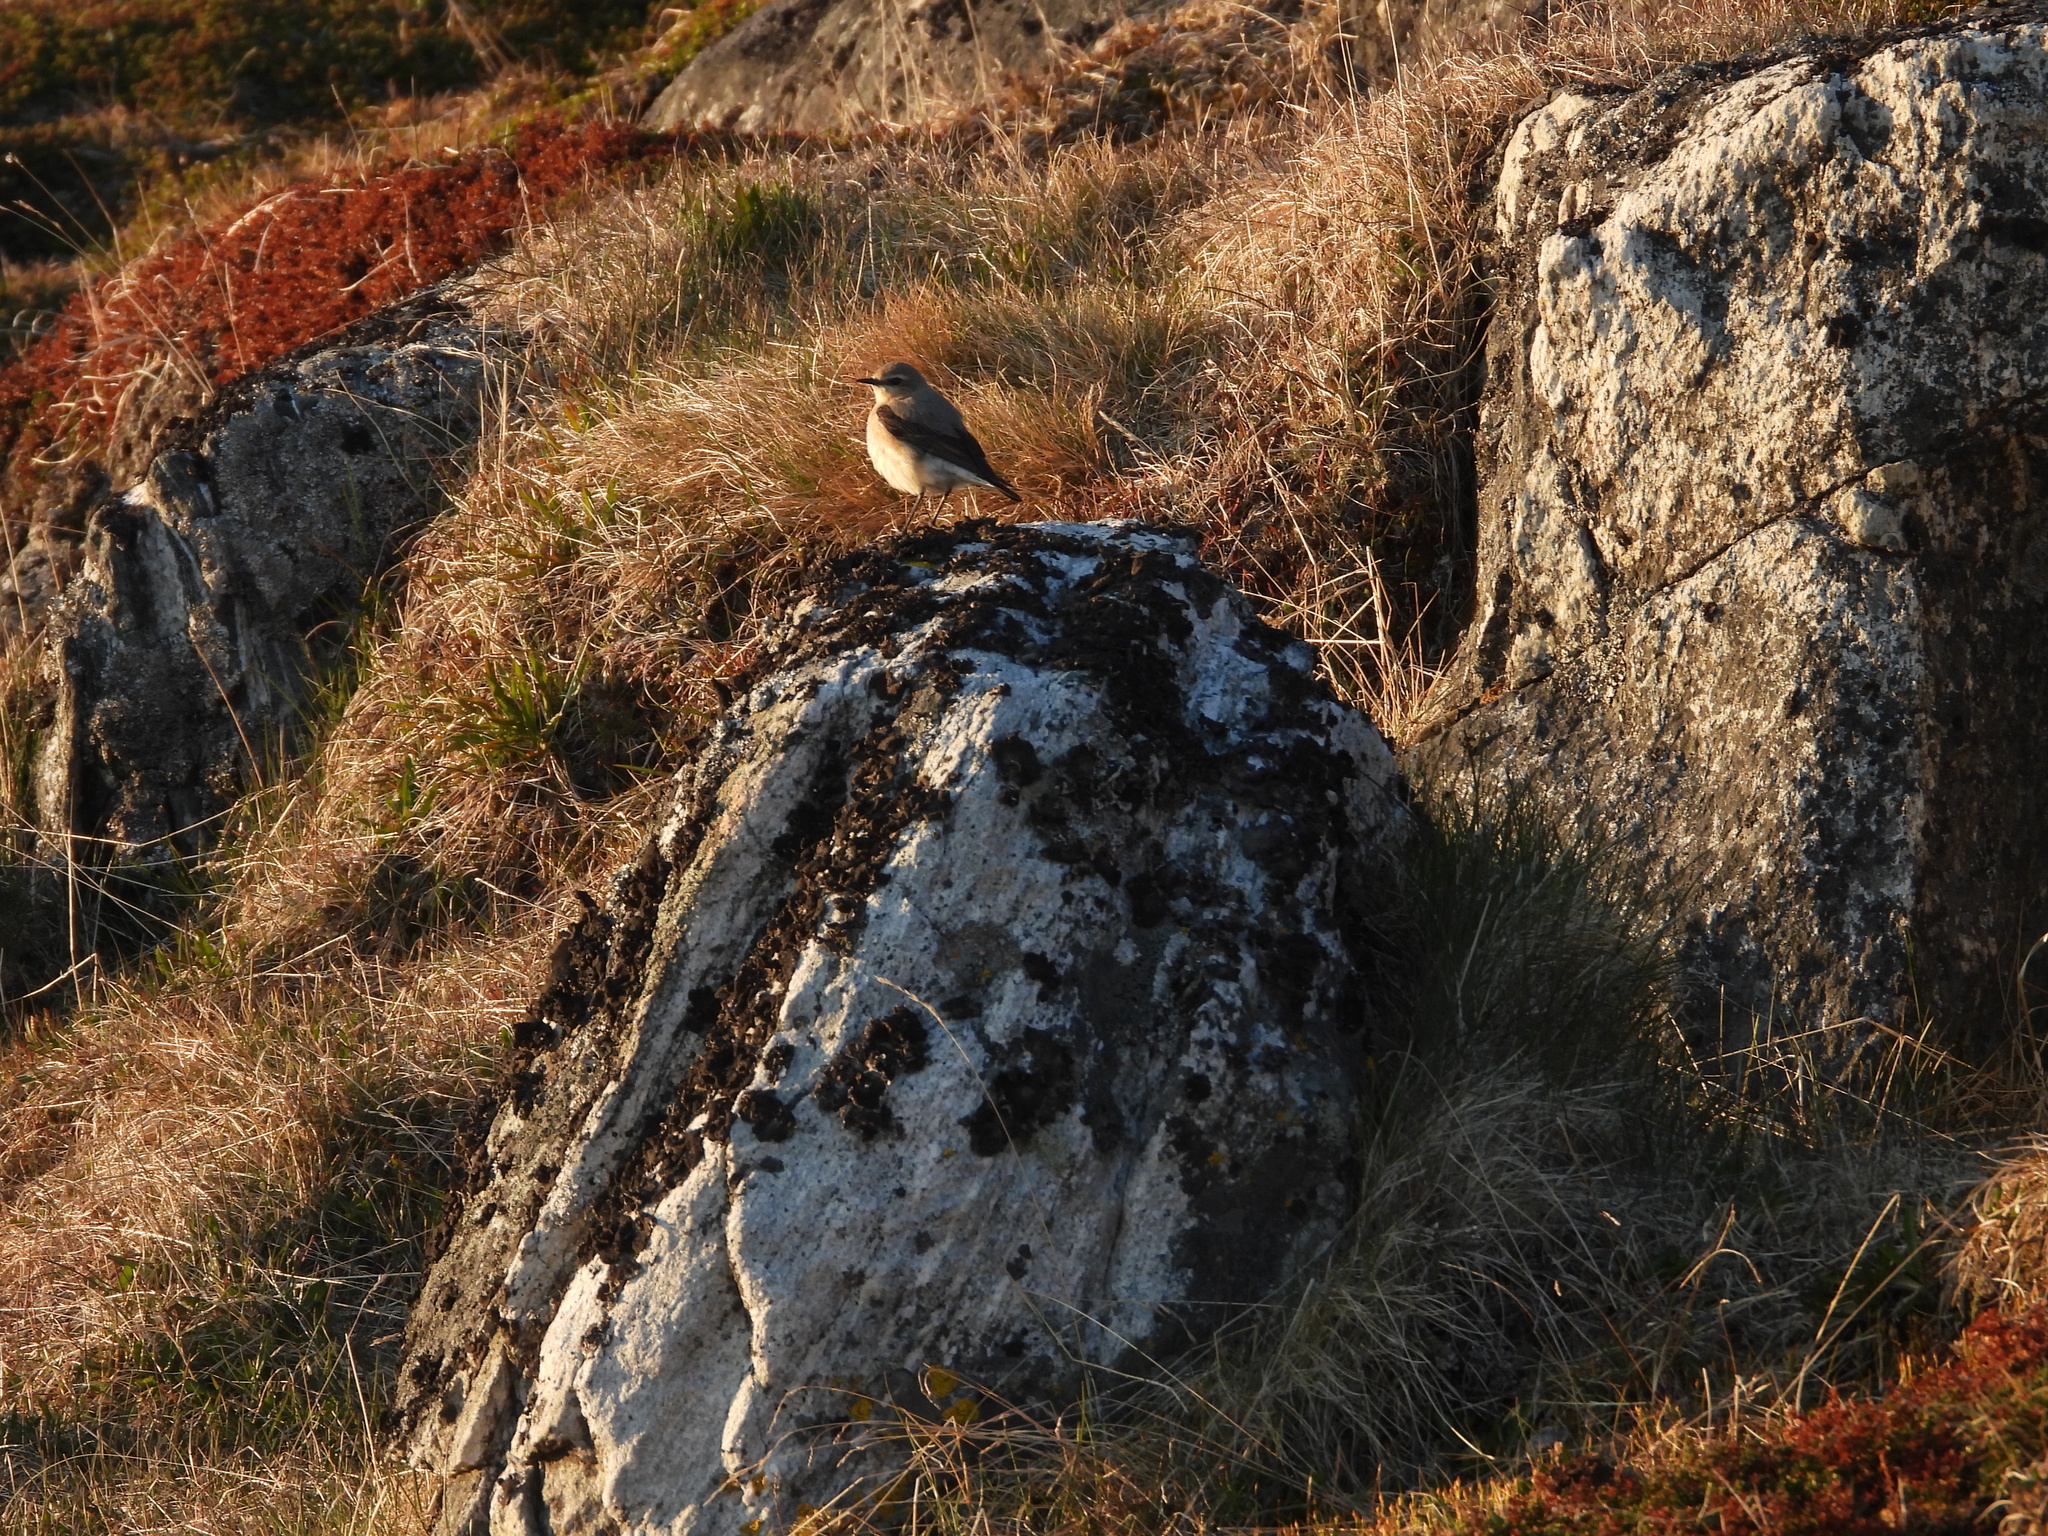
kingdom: Animalia
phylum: Chordata
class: Aves
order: Passeriformes
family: Muscicapidae
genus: Oenanthe
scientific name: Oenanthe oenanthe
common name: Northern wheatear
